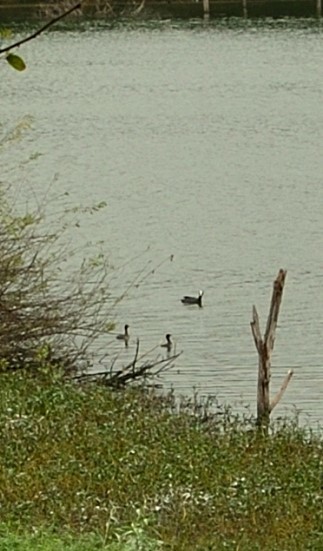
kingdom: Animalia
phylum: Chordata
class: Aves
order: Gruiformes
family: Rallidae
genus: Fulica
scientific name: Fulica atra
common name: Eurasian coot
